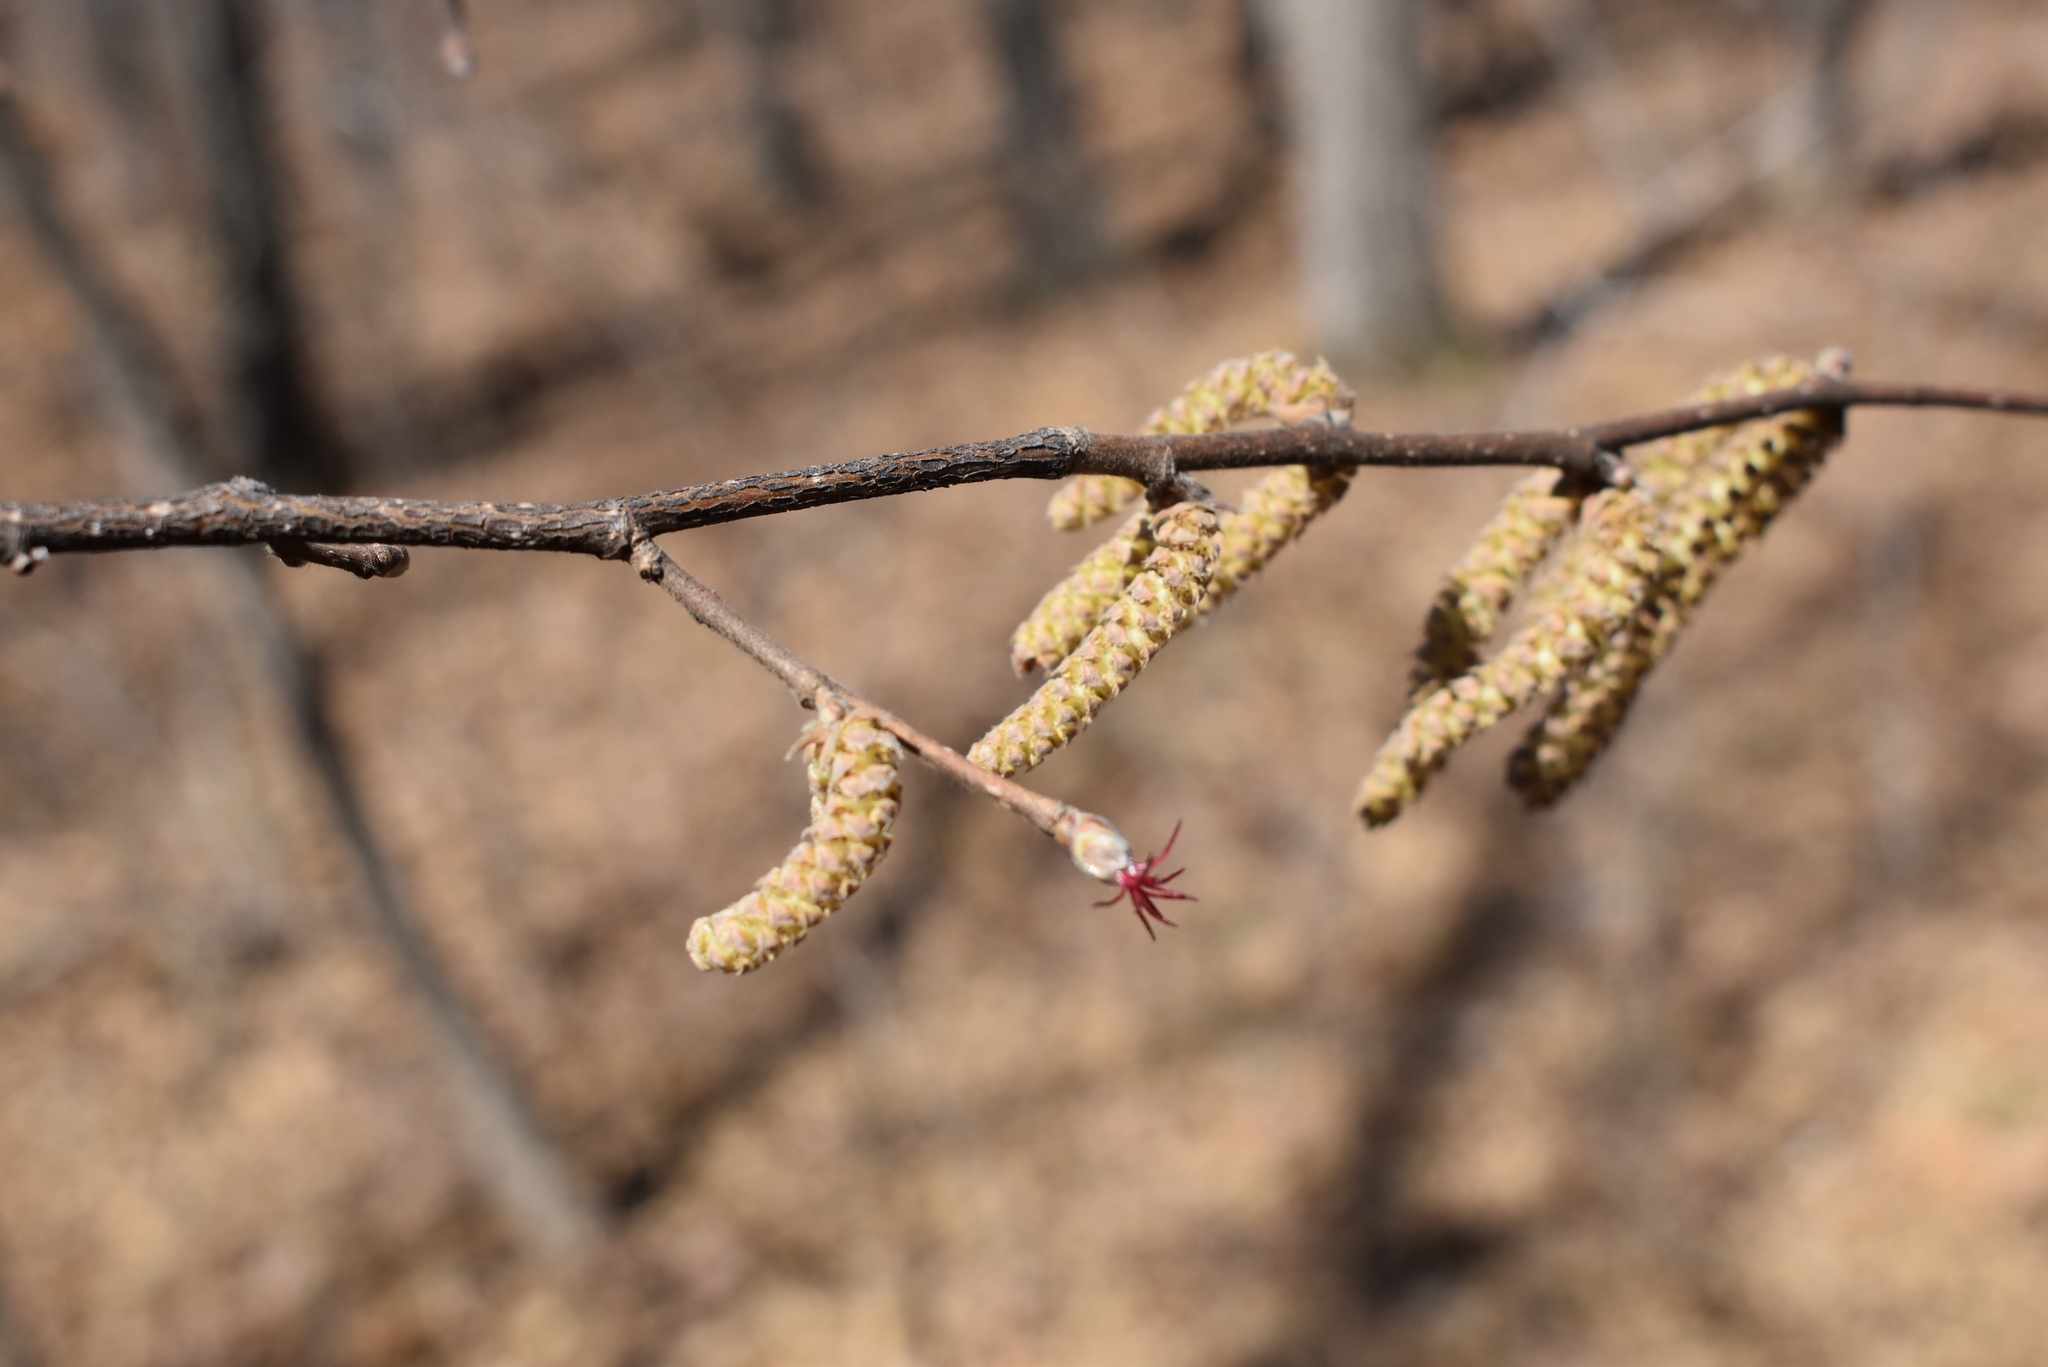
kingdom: Plantae
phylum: Tracheophyta
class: Magnoliopsida
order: Fagales
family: Betulaceae
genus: Corylus
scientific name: Corylus sieboldiana
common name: Japanese hazel
